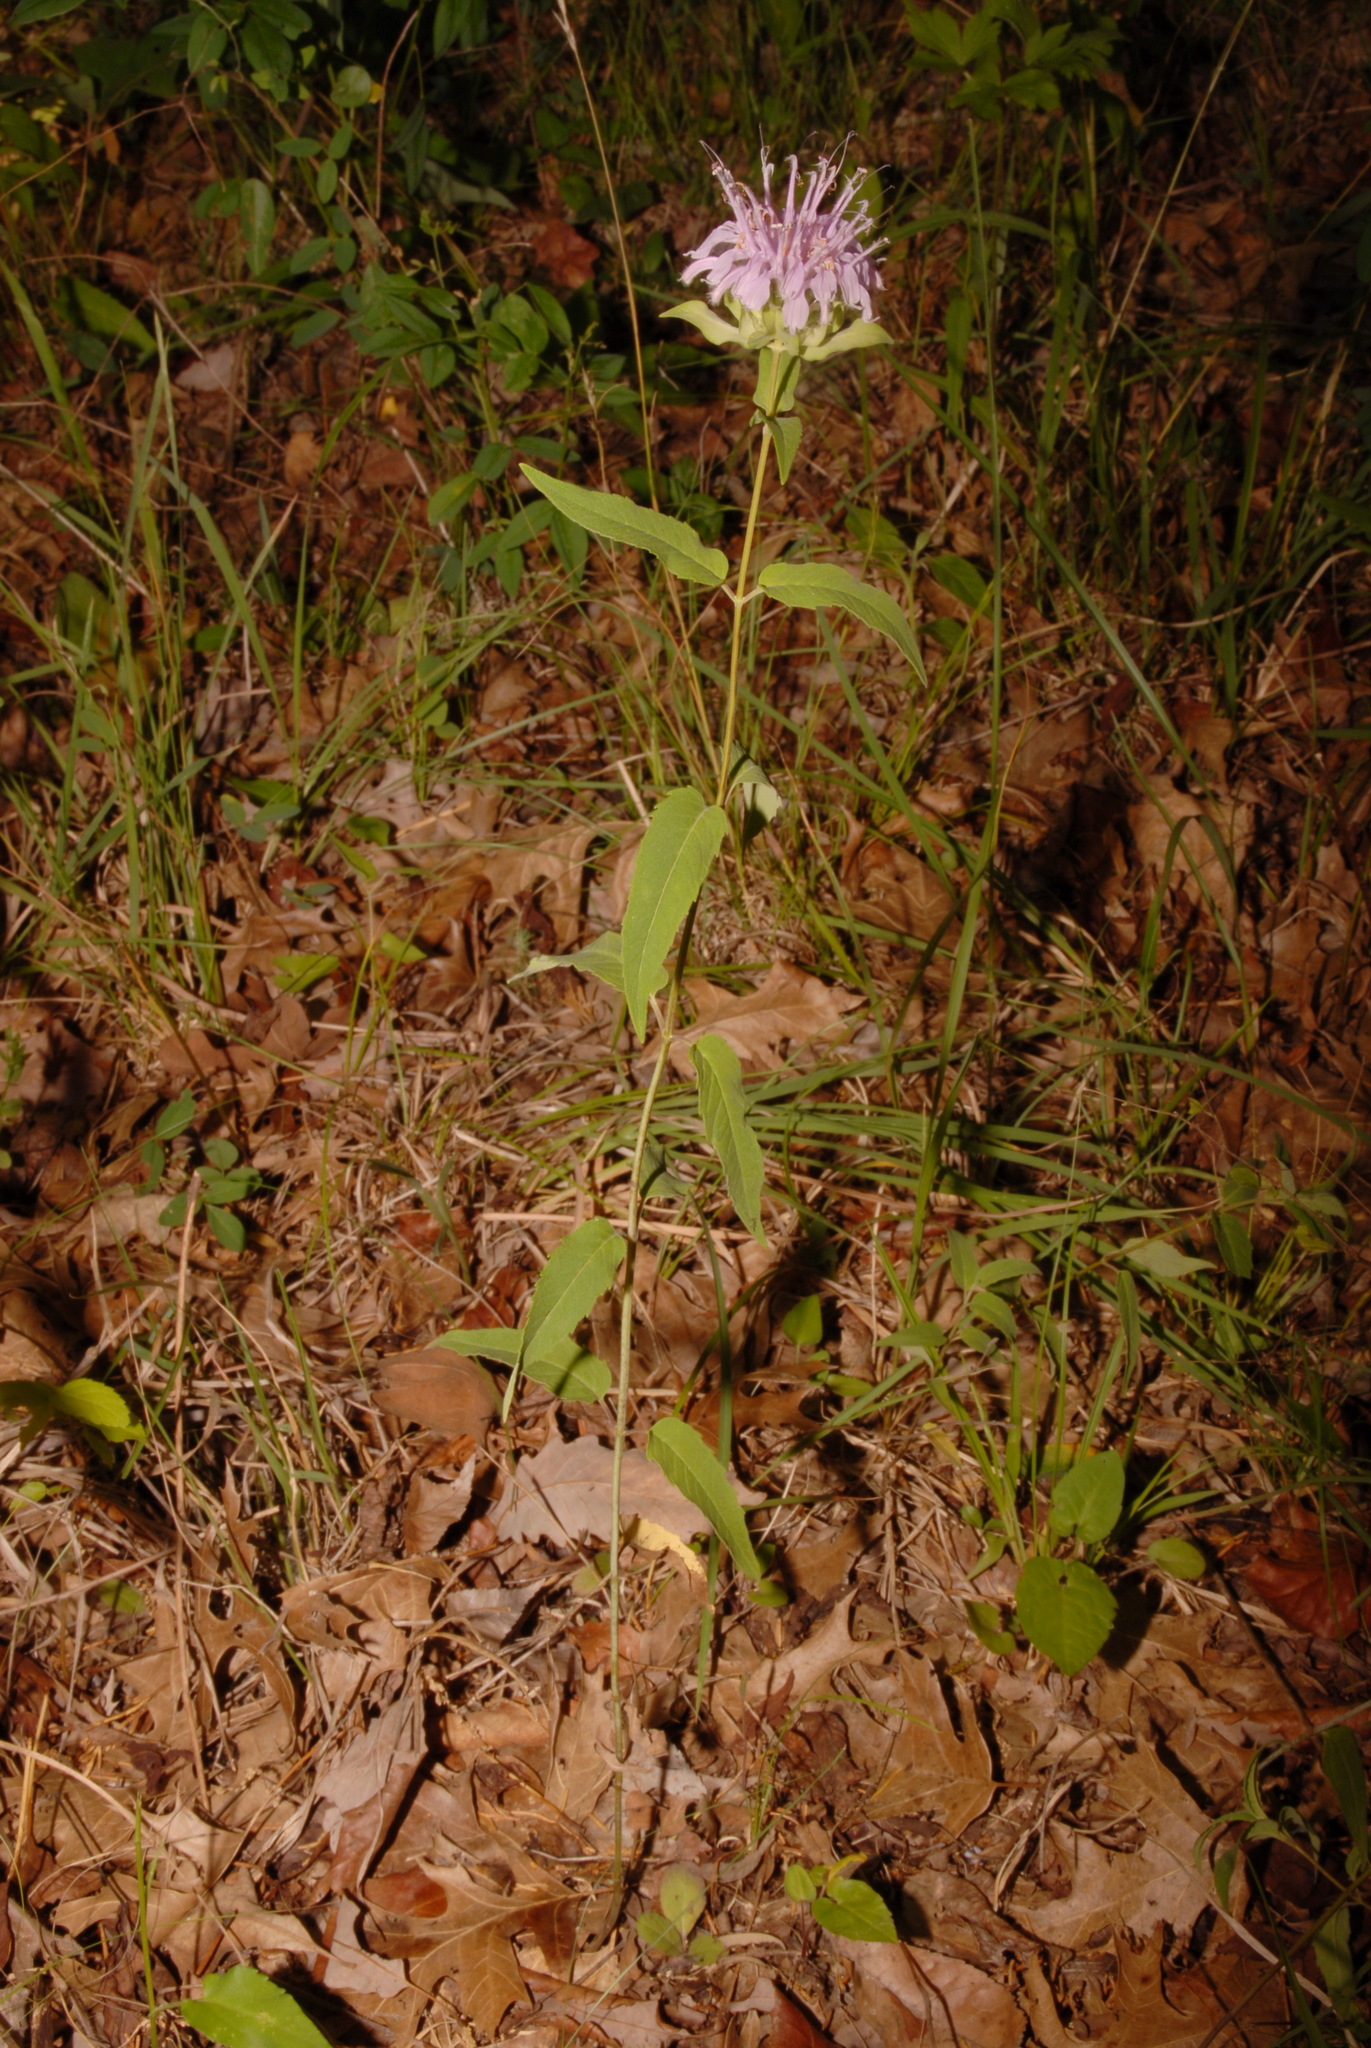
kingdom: Plantae
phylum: Tracheophyta
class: Magnoliopsida
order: Lamiales
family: Lamiaceae
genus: Monarda
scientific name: Monarda fistulosa
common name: Purple beebalm
